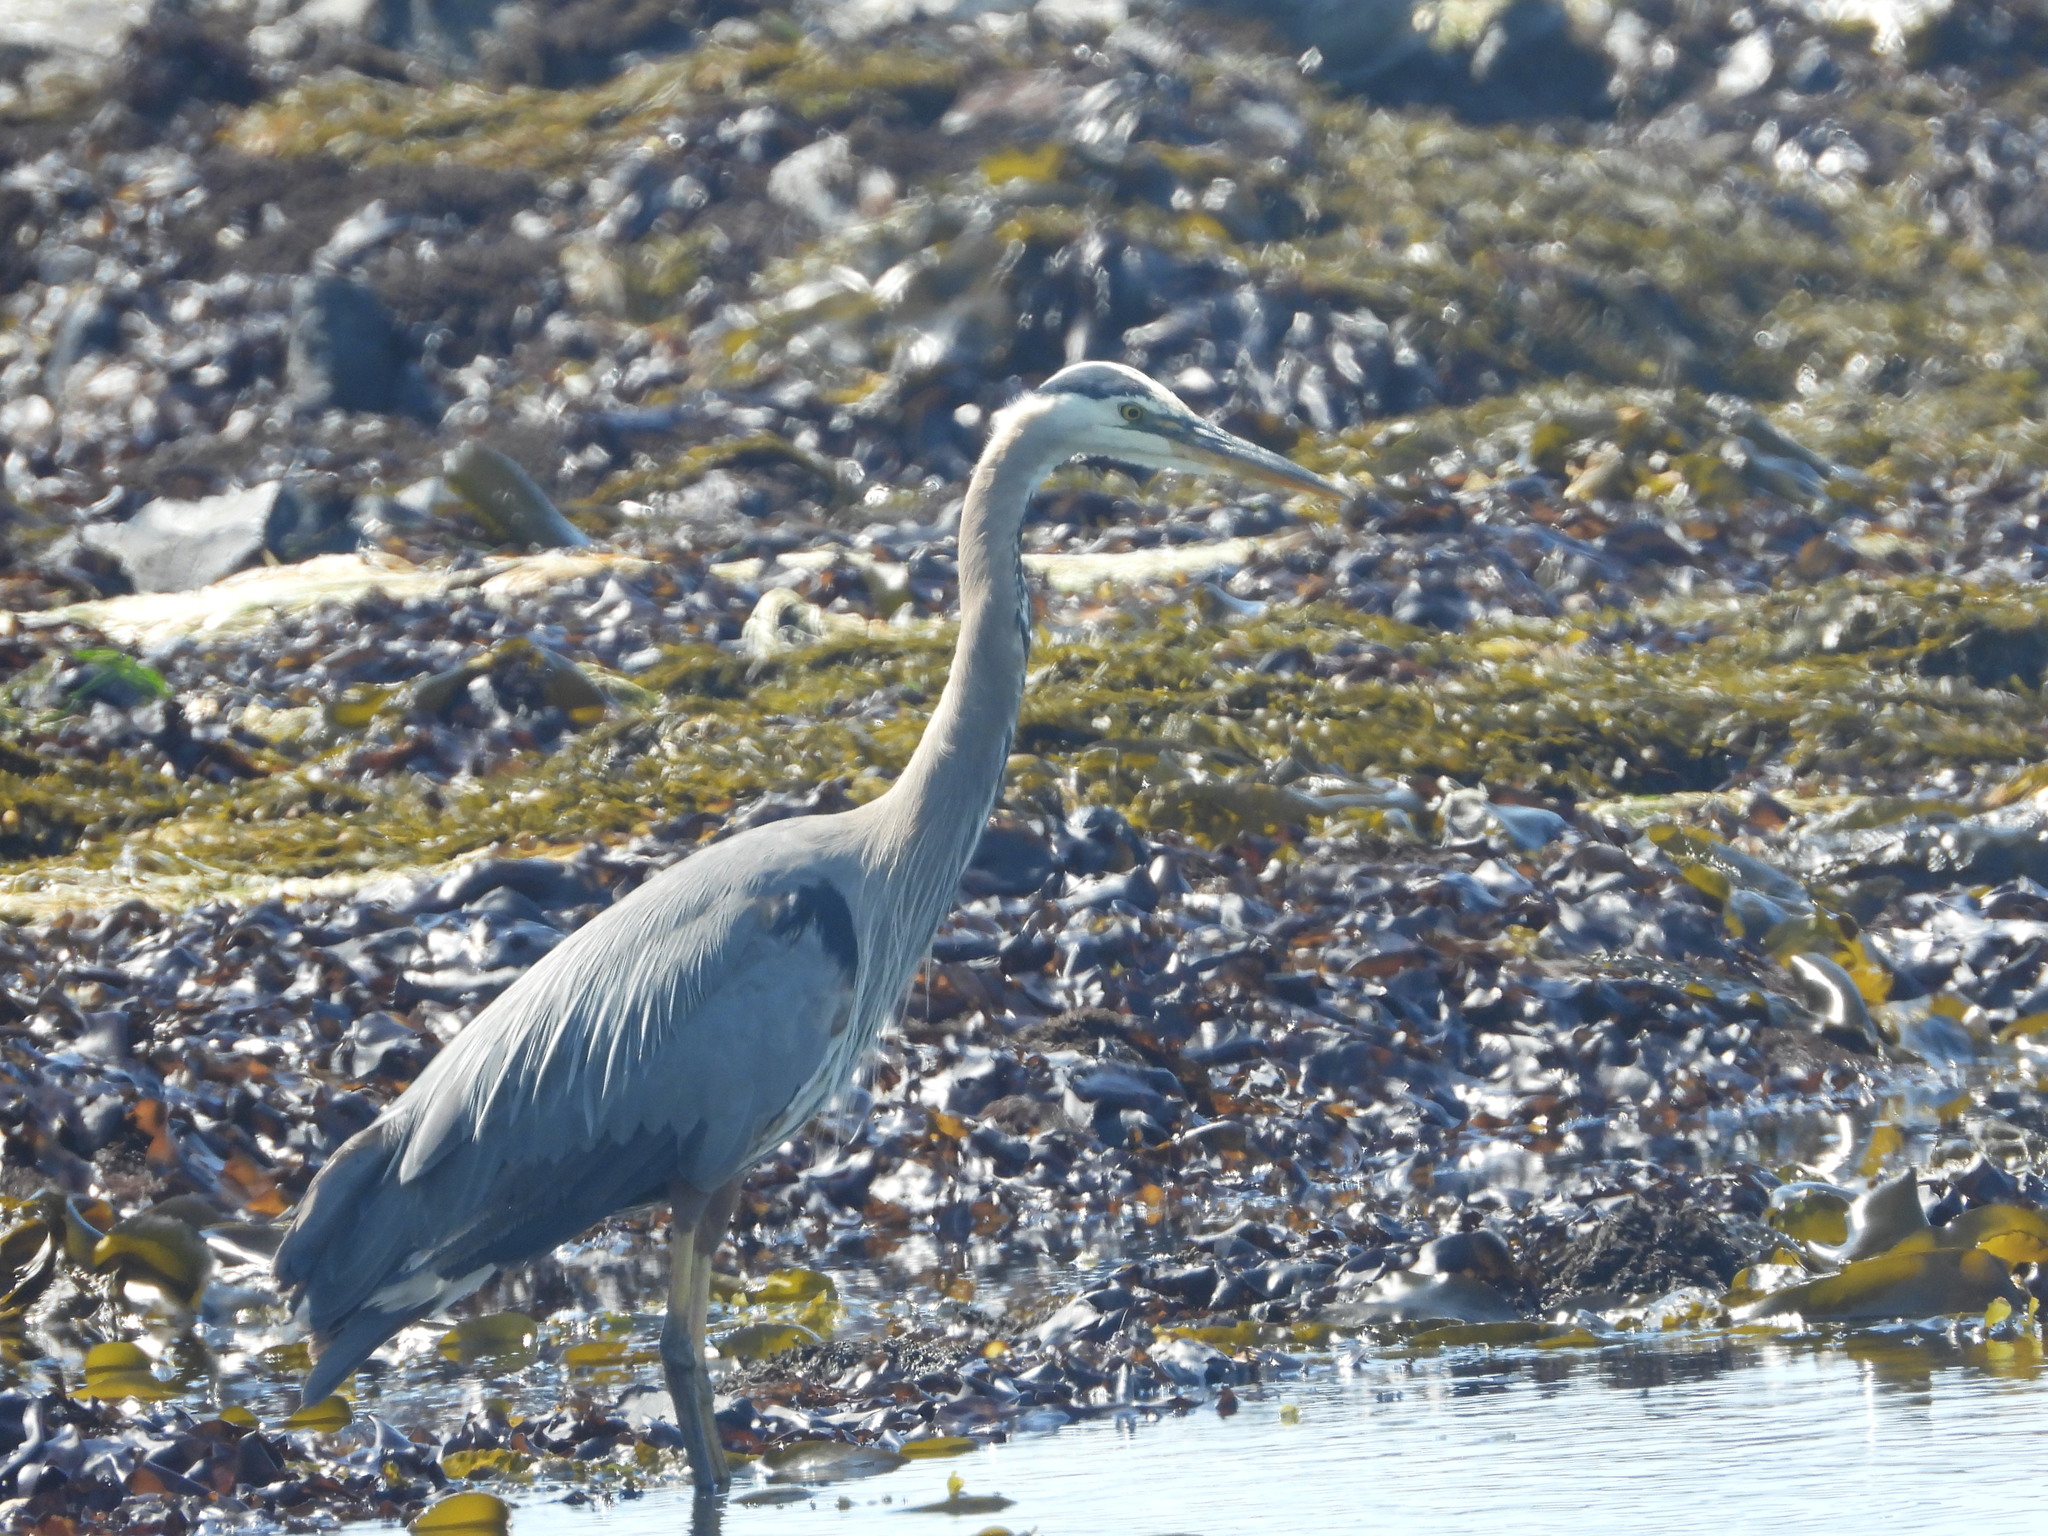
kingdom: Animalia
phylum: Chordata
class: Aves
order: Pelecaniformes
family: Ardeidae
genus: Ardea
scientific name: Ardea herodias
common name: Great blue heron
